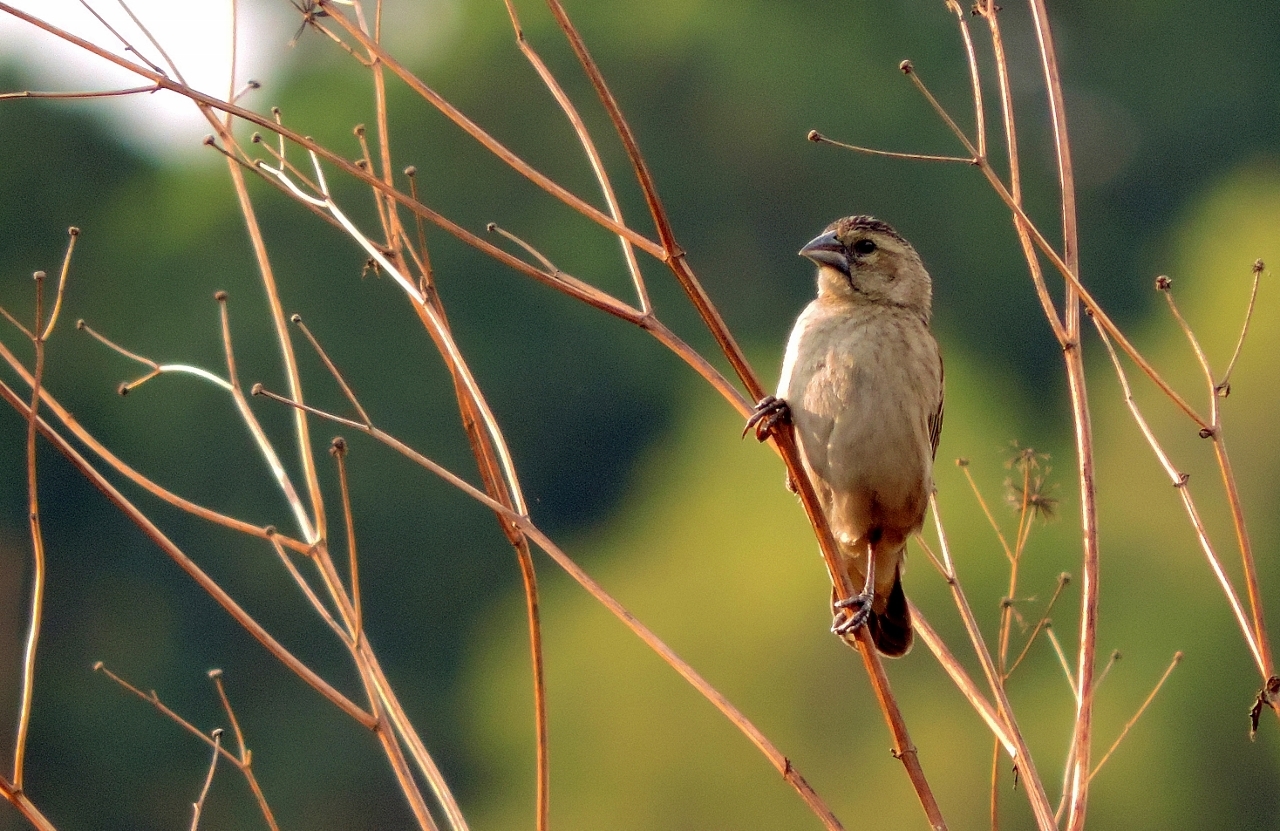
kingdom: Animalia
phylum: Chordata
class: Aves
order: Passeriformes
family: Ploceidae
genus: Euplectes
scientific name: Euplectes macroura
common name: Yellow-mantled widowbird
